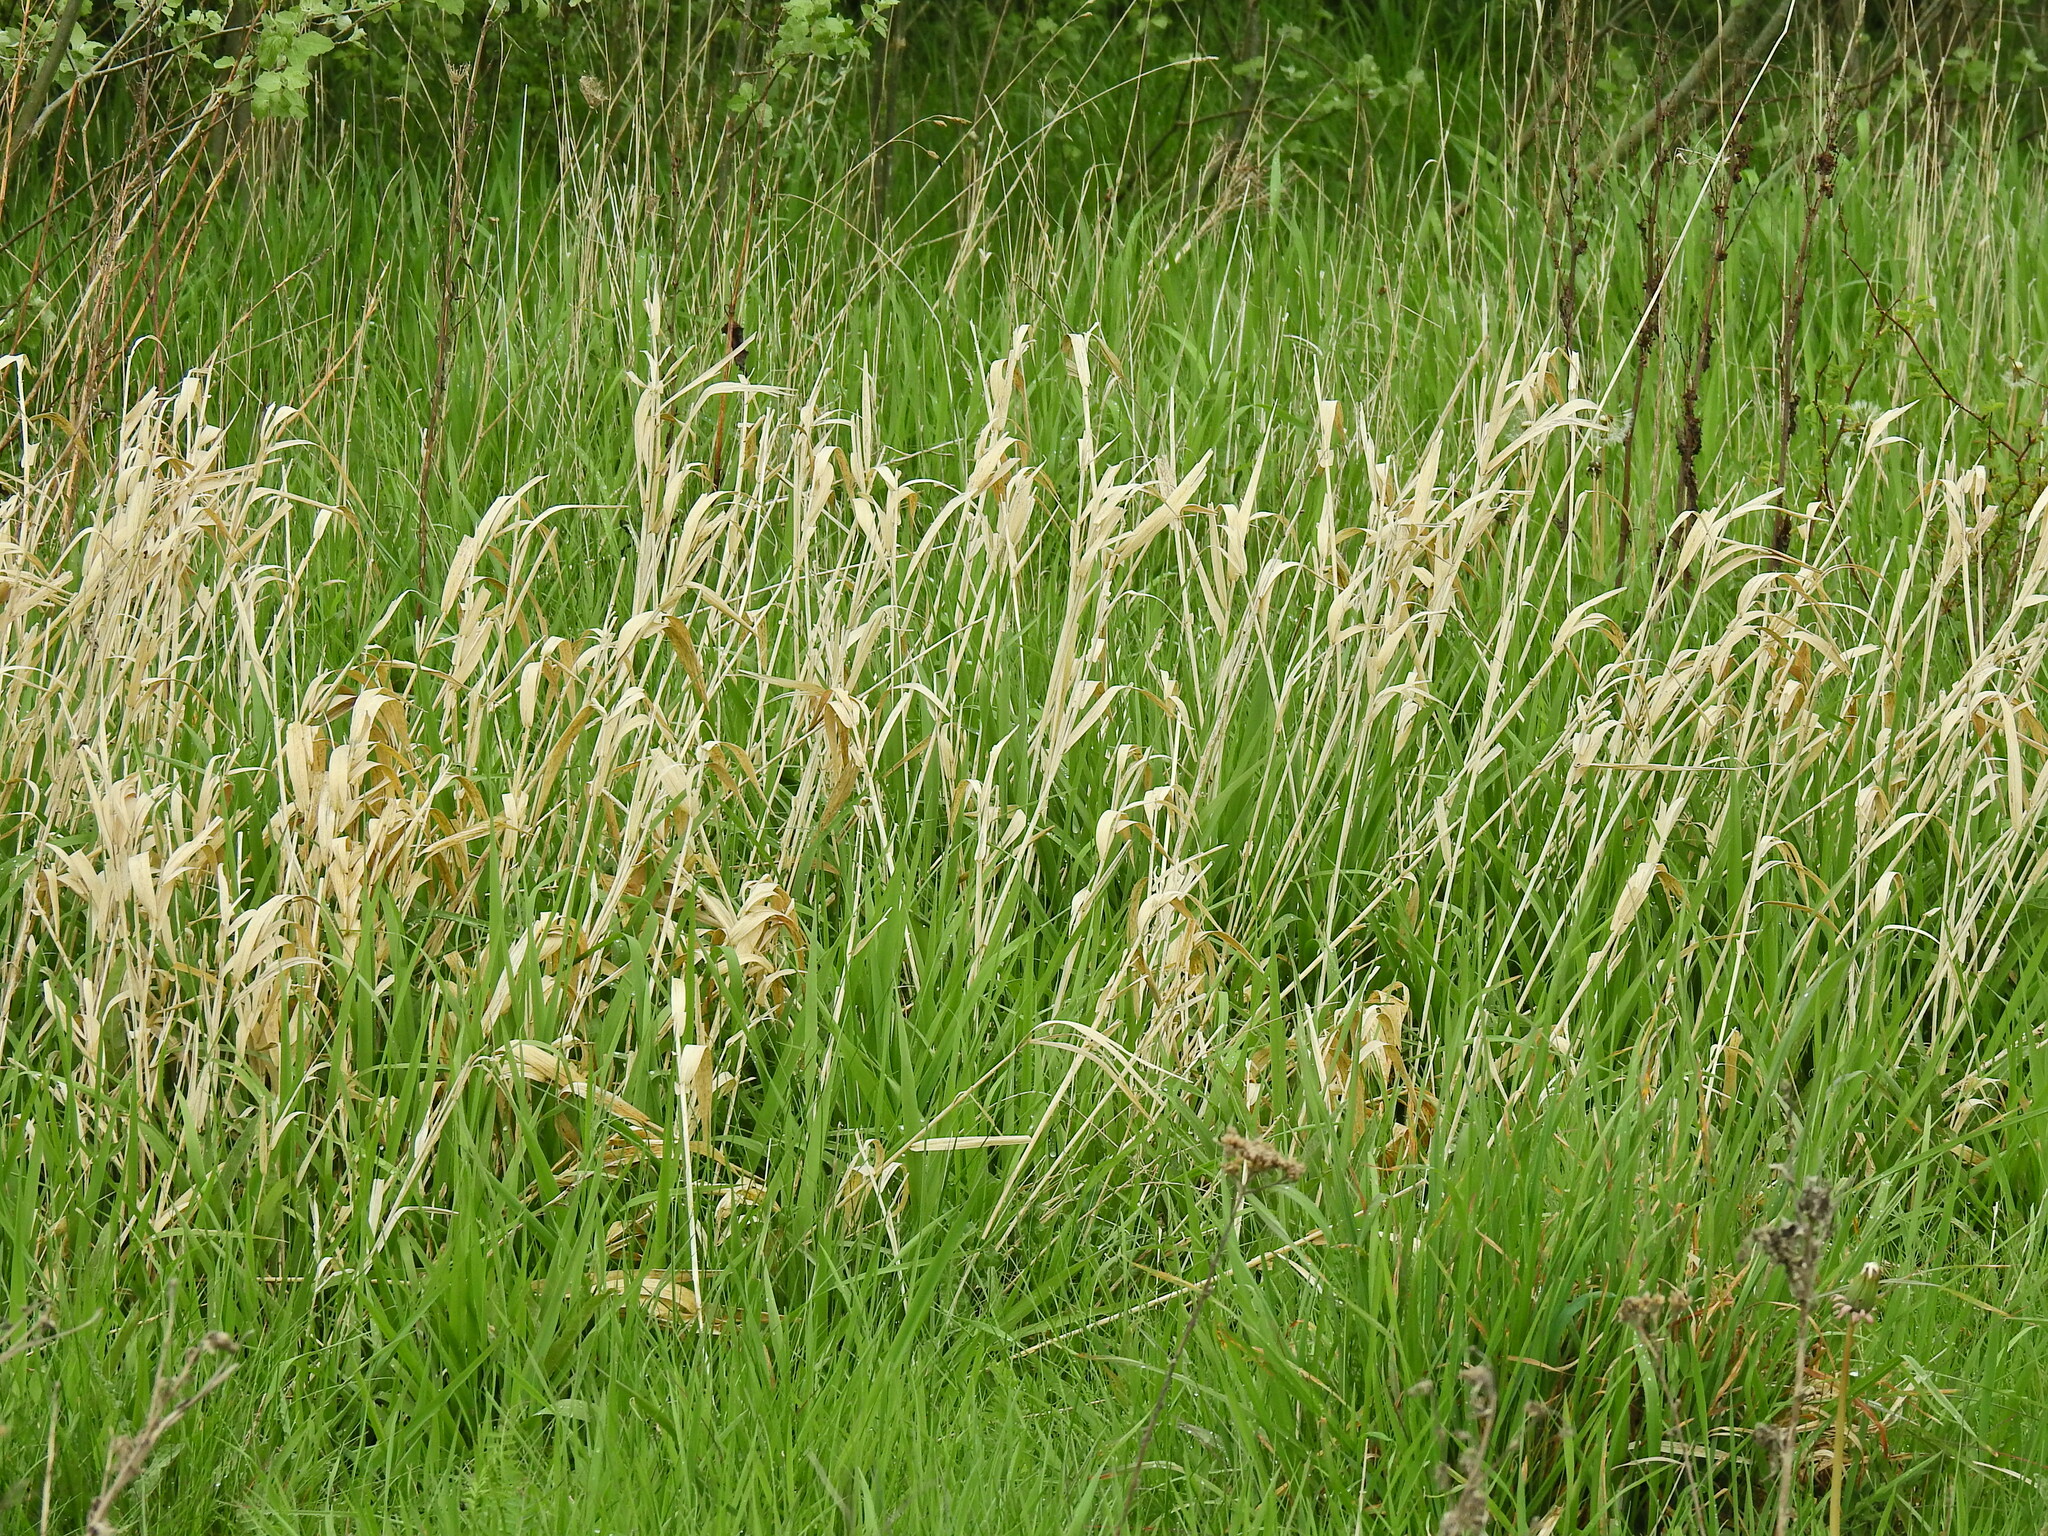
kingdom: Plantae
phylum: Tracheophyta
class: Liliopsida
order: Poales
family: Poaceae
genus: Phalaris
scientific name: Phalaris arundinacea
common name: Reed canary-grass
